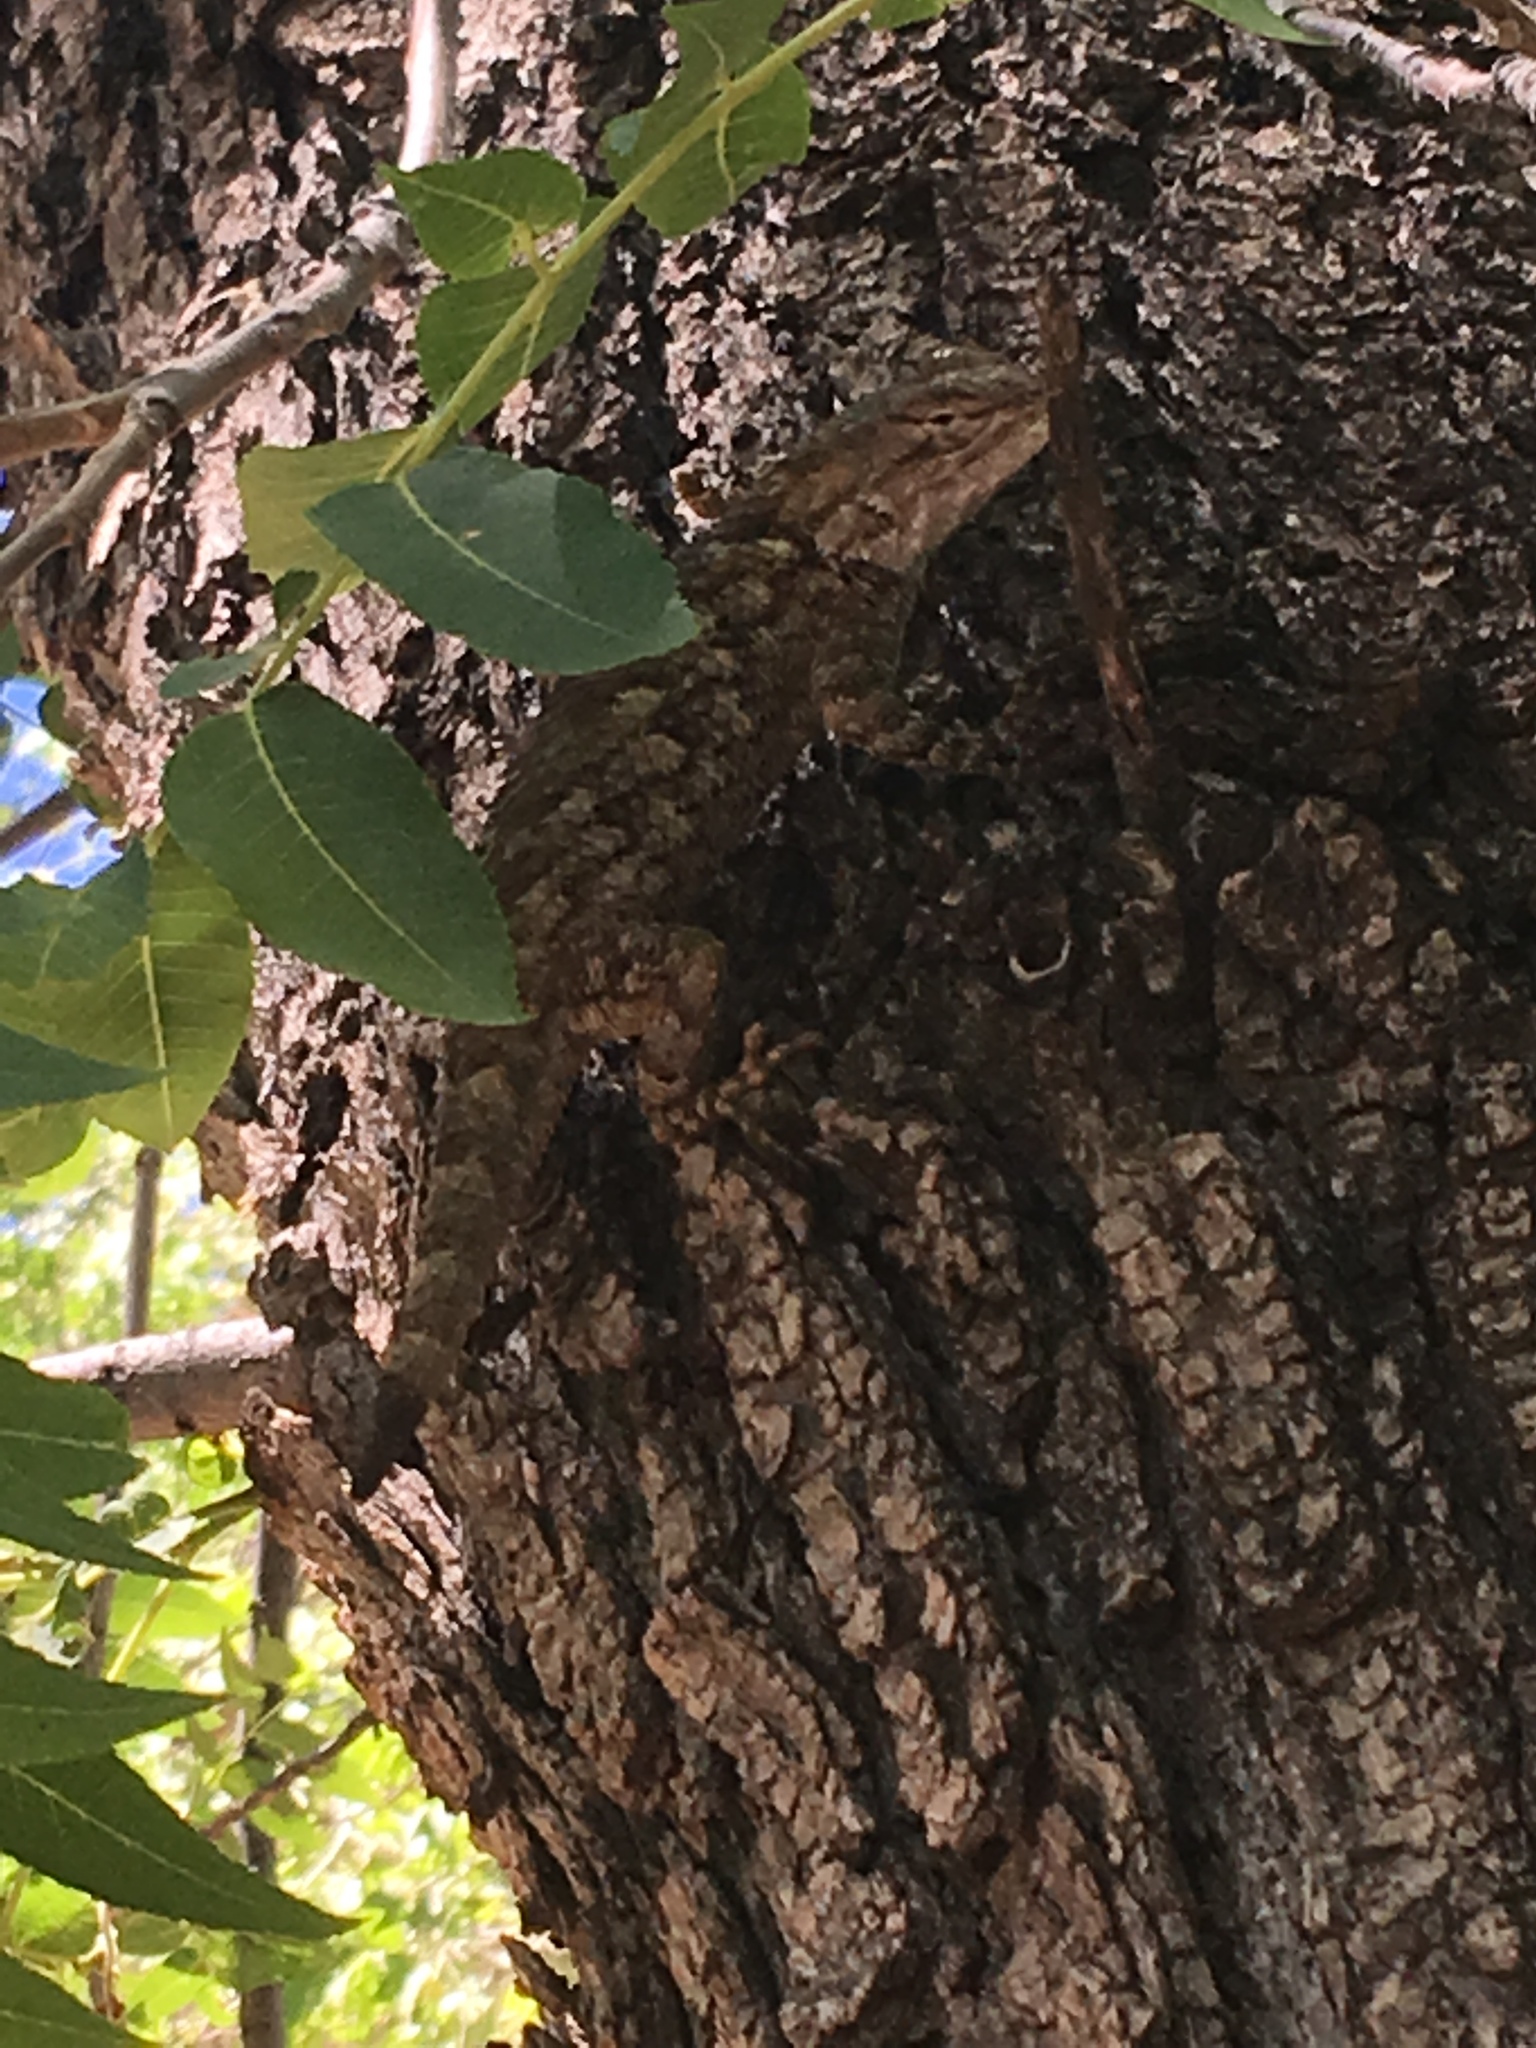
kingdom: Animalia
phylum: Chordata
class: Squamata
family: Phrynosomatidae
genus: Sceloporus
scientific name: Sceloporus clarkii
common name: Clark's spiny lizard
